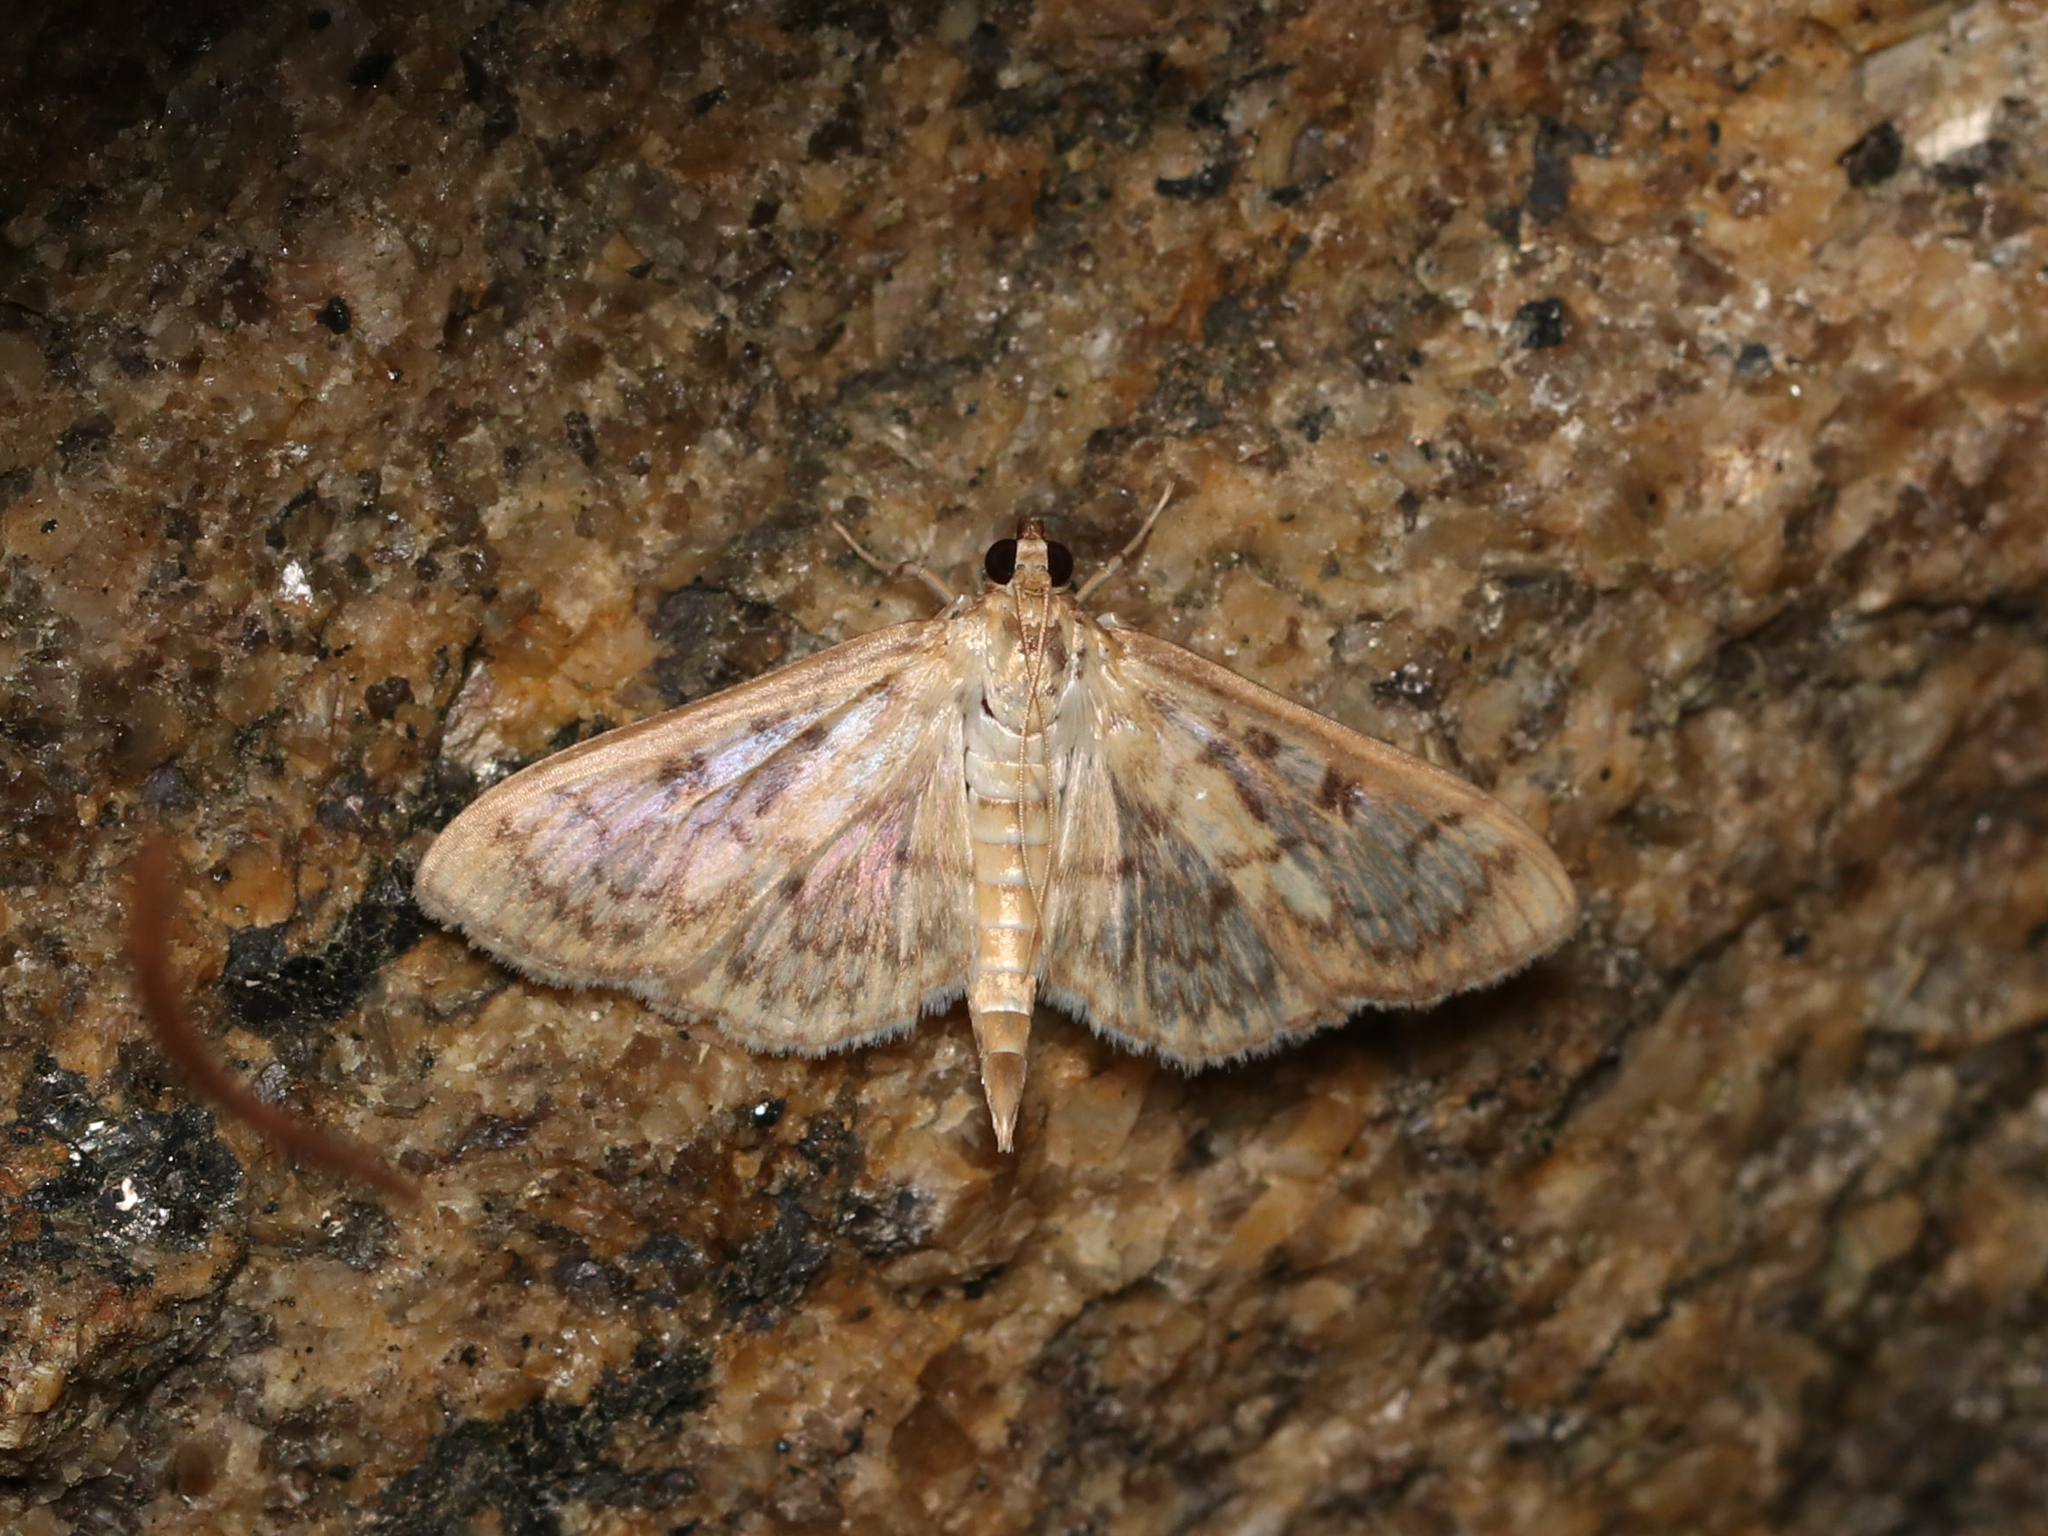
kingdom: Animalia
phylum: Arthropoda
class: Insecta
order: Lepidoptera
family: Crambidae
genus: Herpetogramma
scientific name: Herpetogramma pertextalis
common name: Bold-feathered grass moth
